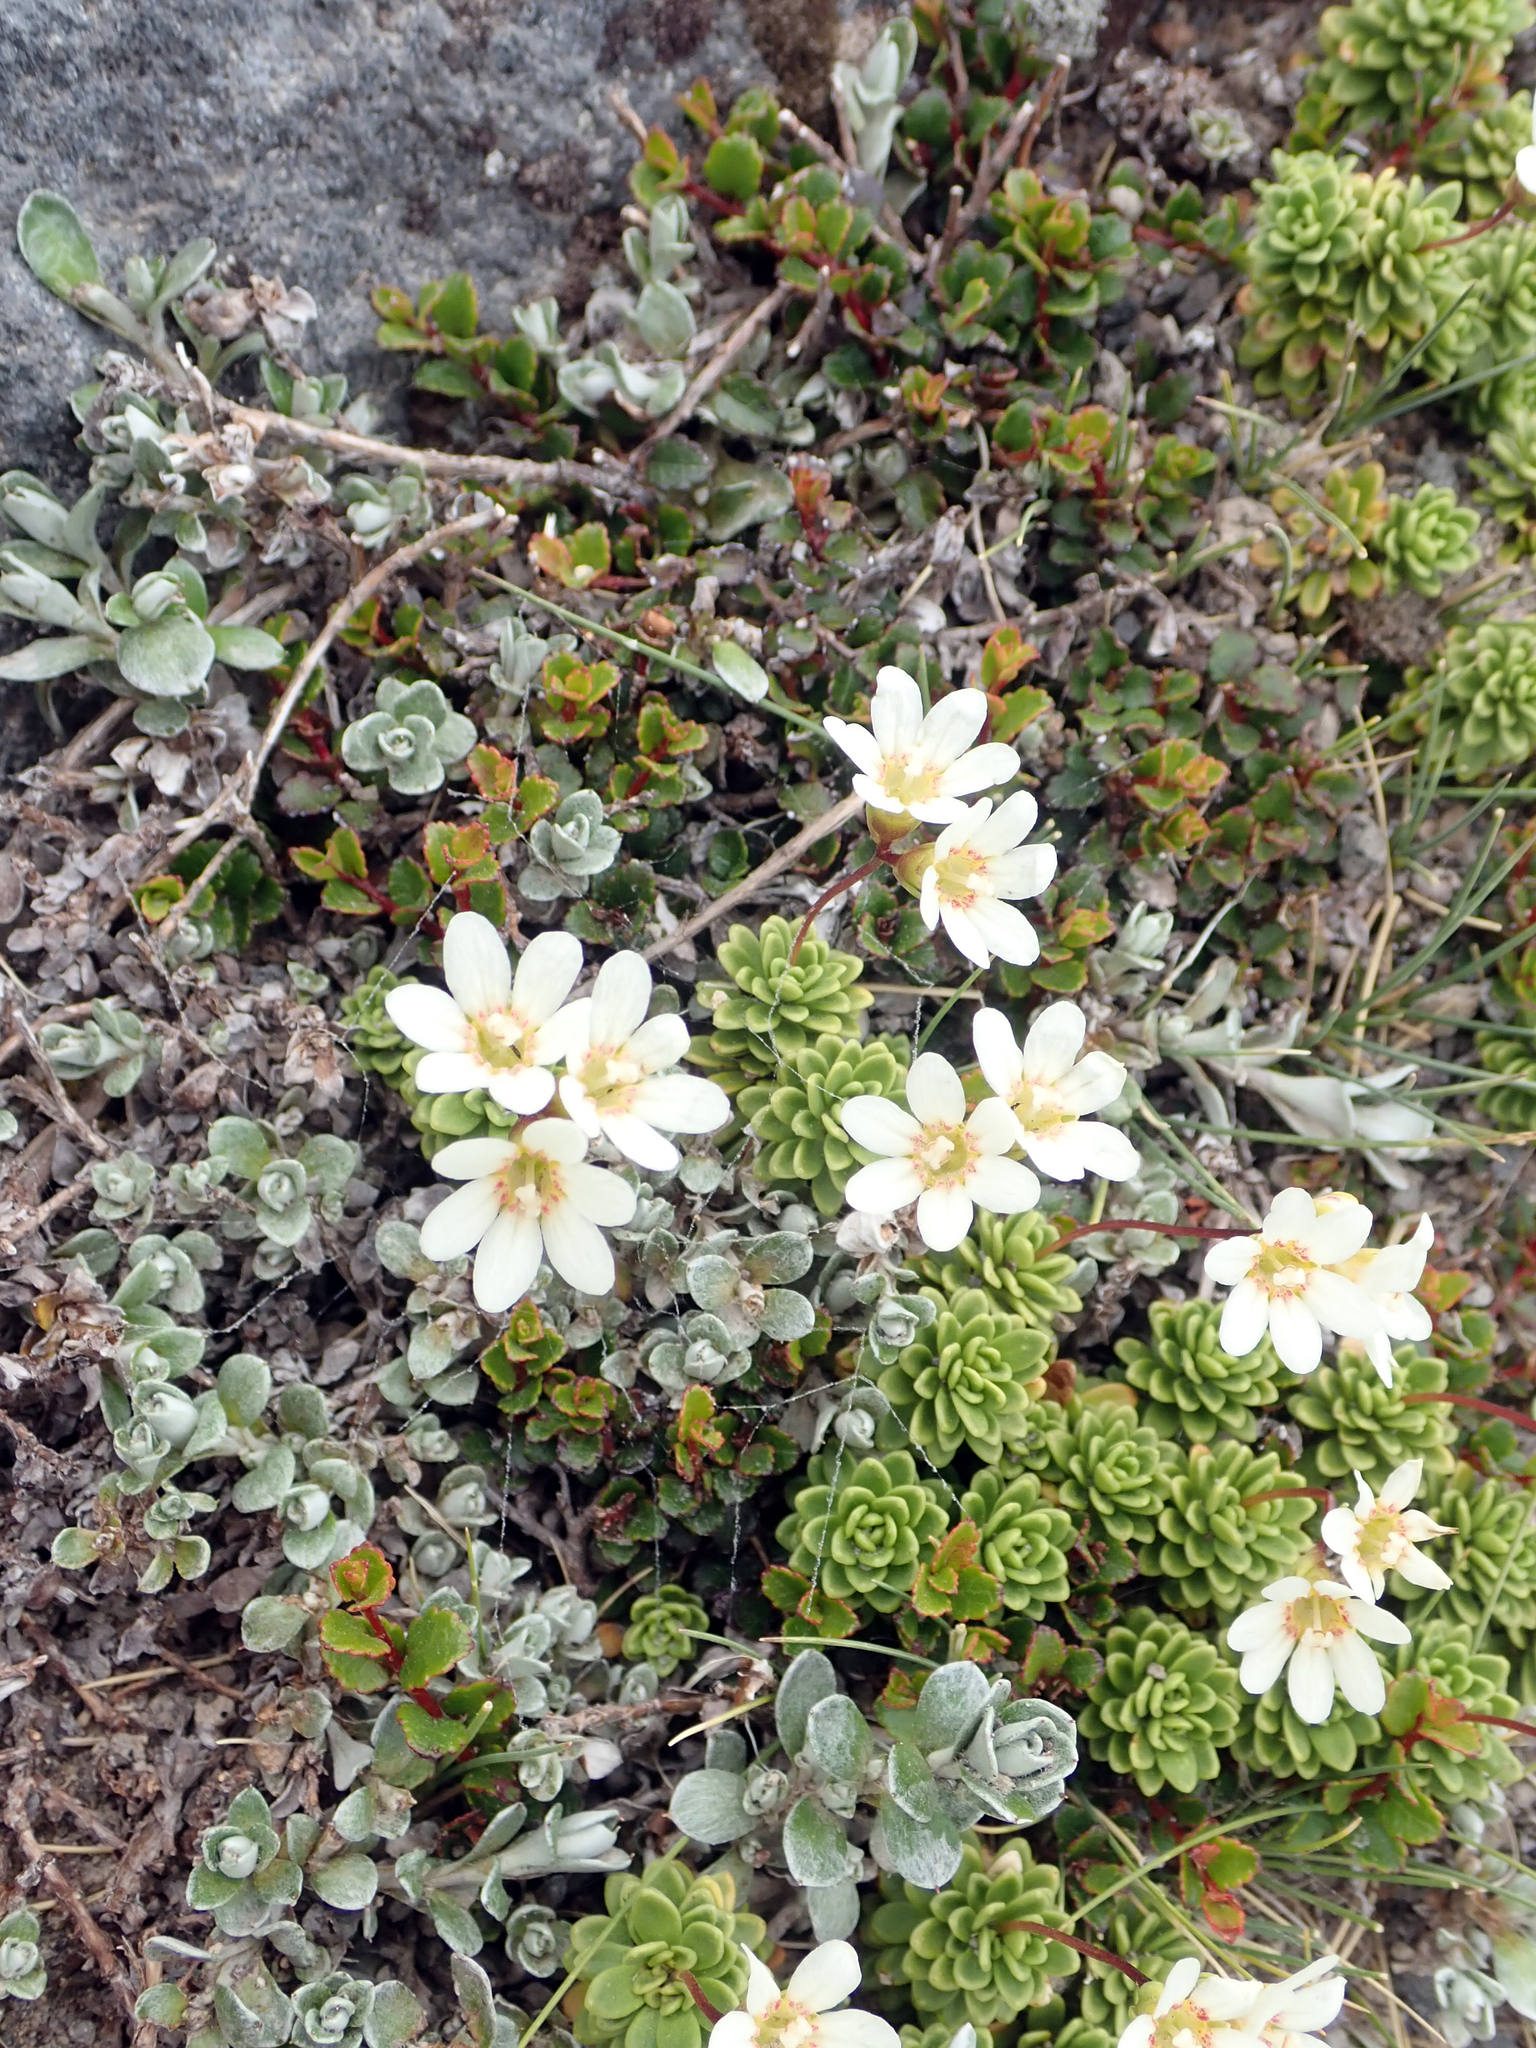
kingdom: Plantae
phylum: Tracheophyta
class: Magnoliopsida
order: Asterales
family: Stylidiaceae
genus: Forstera
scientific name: Forstera tenella
